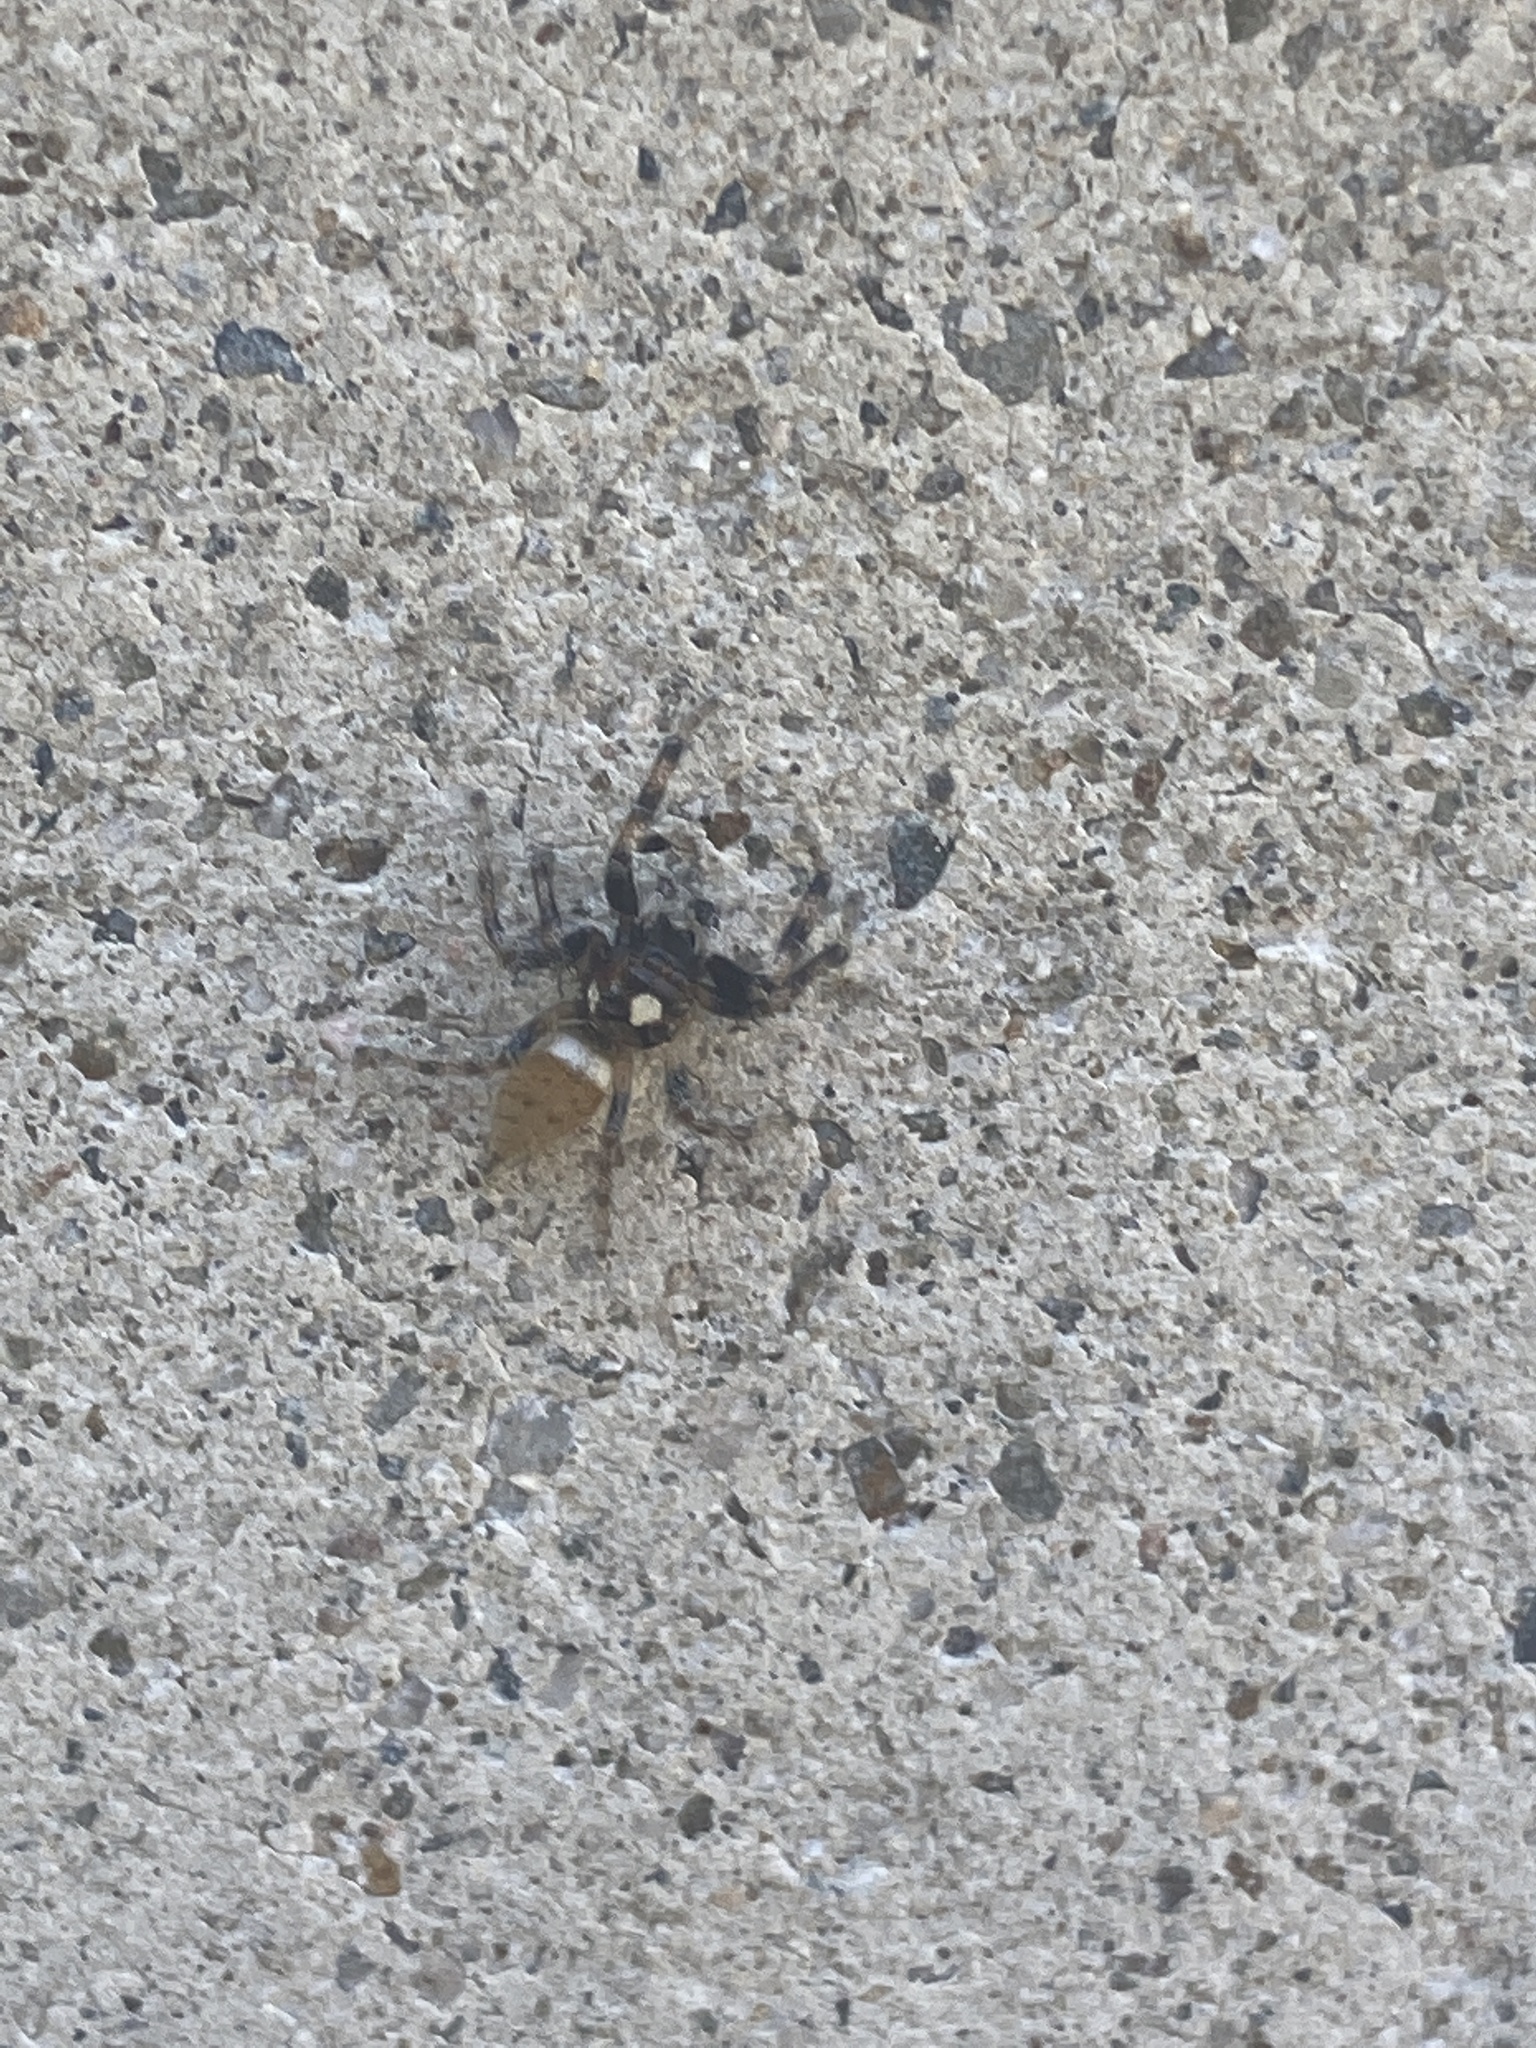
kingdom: Animalia
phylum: Arthropoda
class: Arachnida
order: Araneae
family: Salticidae
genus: Colonus
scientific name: Colonus hesperus
